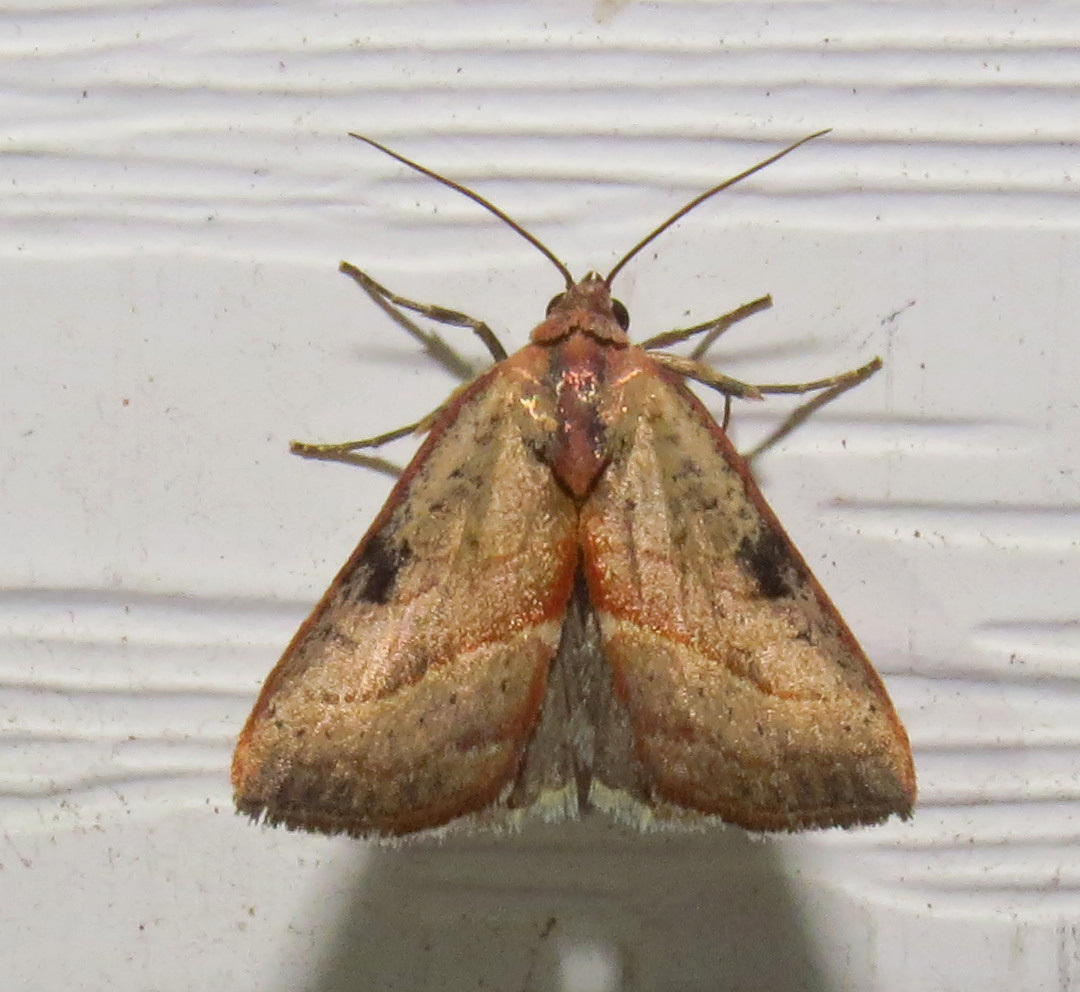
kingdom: Animalia
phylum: Arthropoda
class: Insecta
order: Lepidoptera
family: Noctuidae
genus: Galgula
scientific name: Galgula partita
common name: Wedgeling
